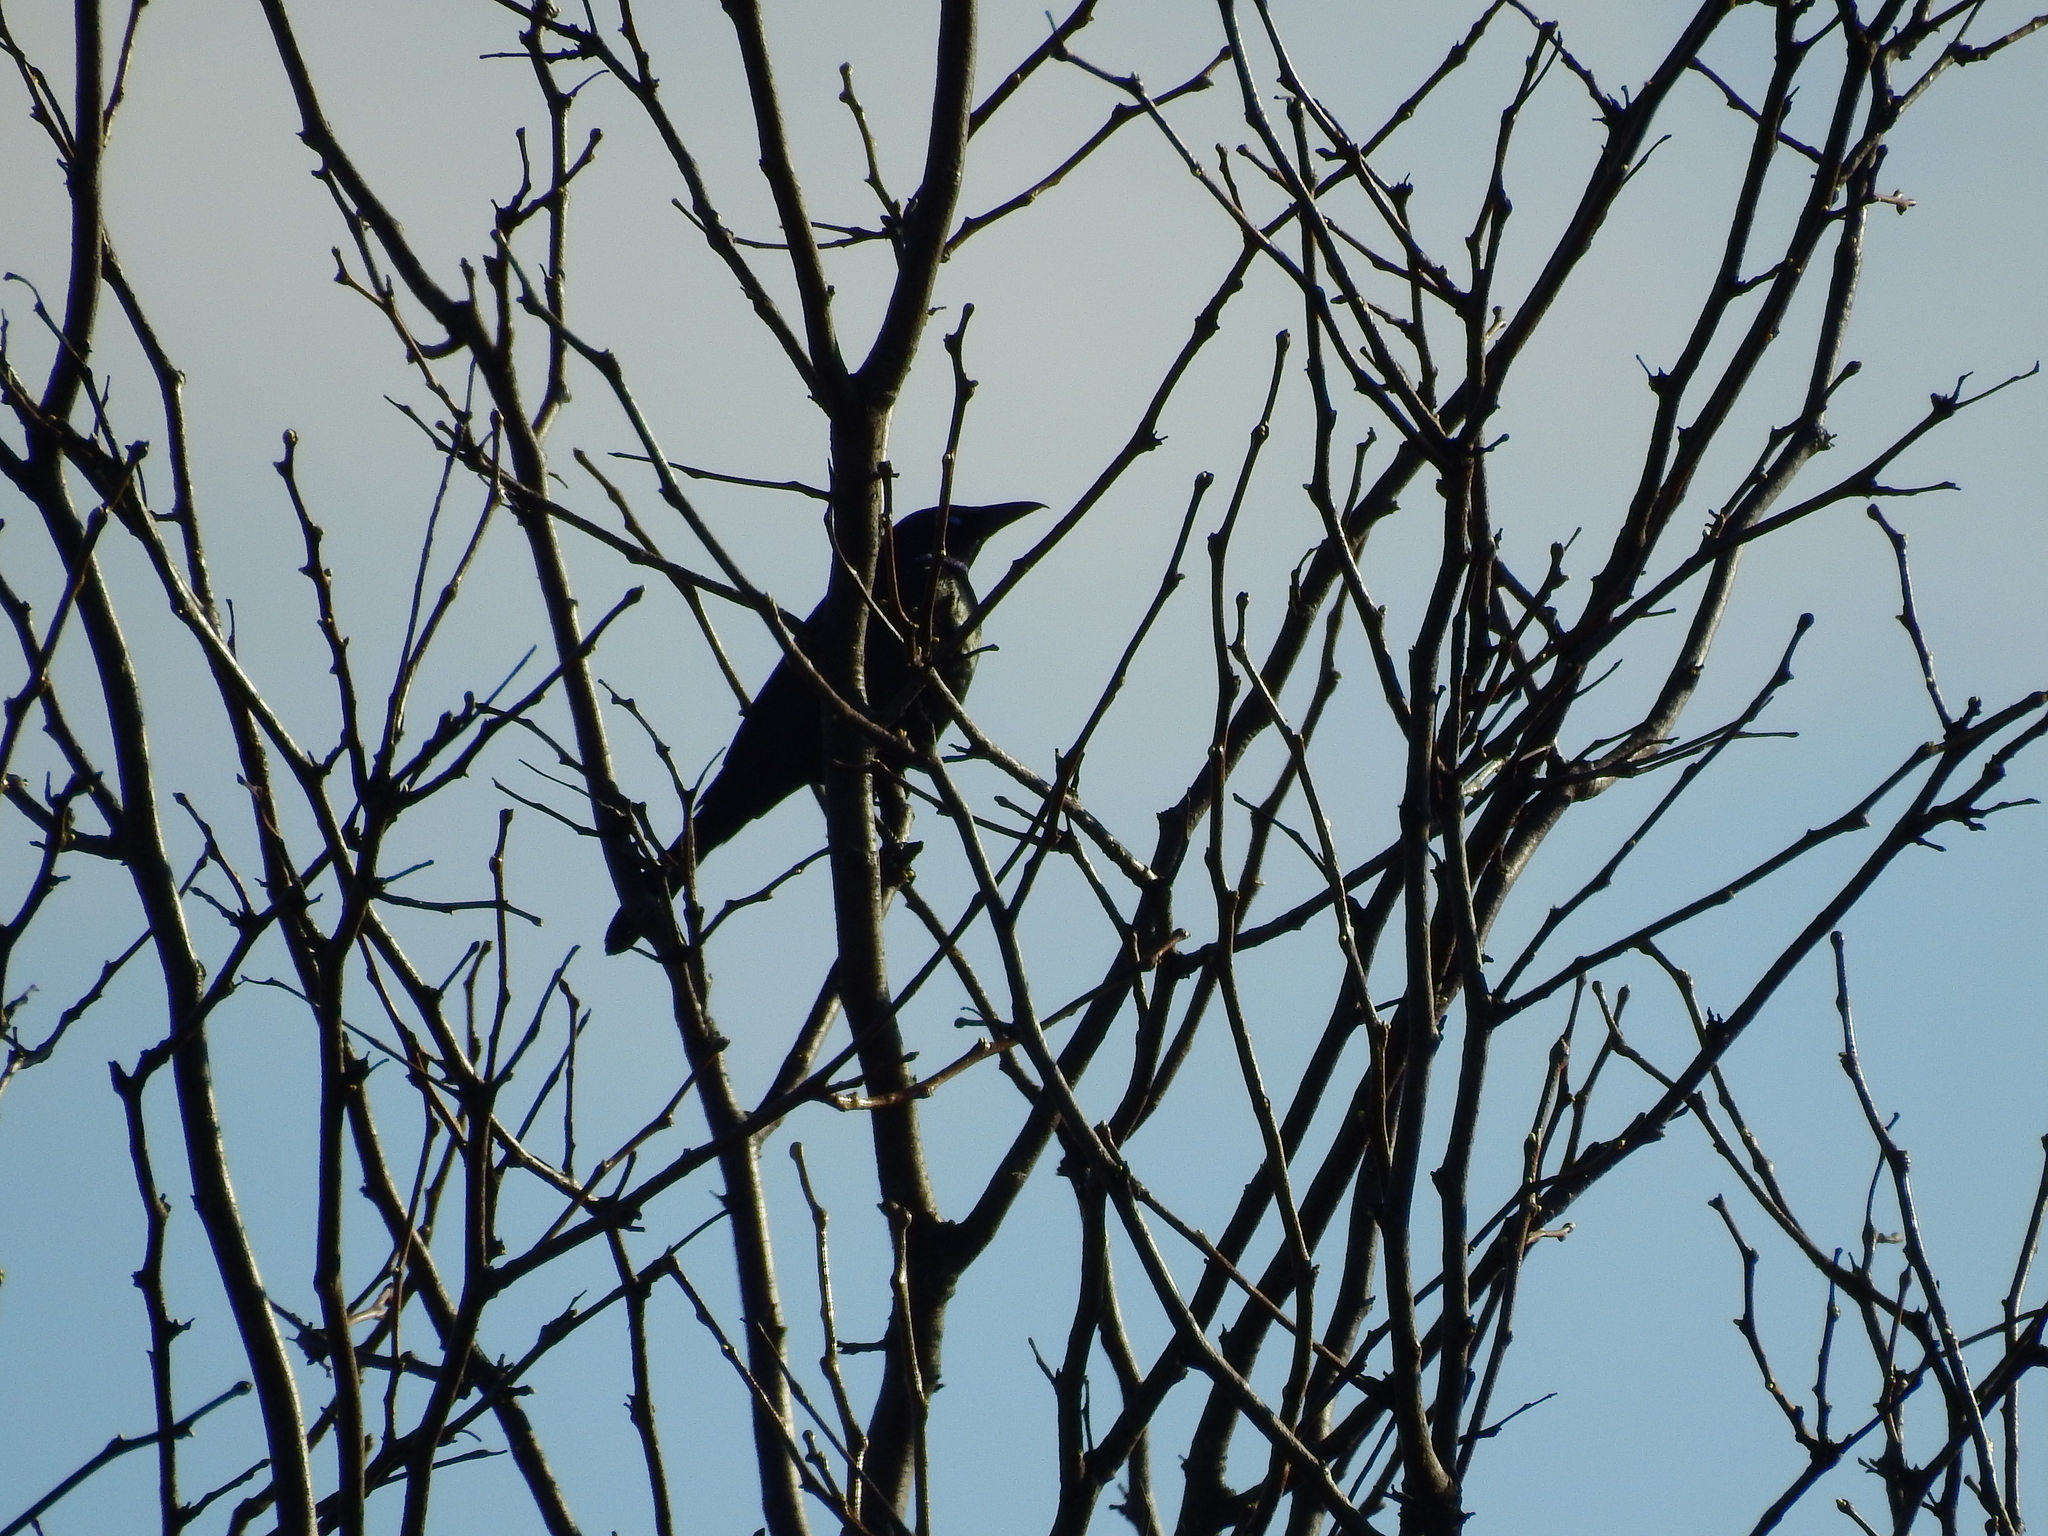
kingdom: Animalia
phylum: Chordata
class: Aves
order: Passeriformes
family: Icteridae
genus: Quiscalus
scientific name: Quiscalus quiscula
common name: Common grackle
